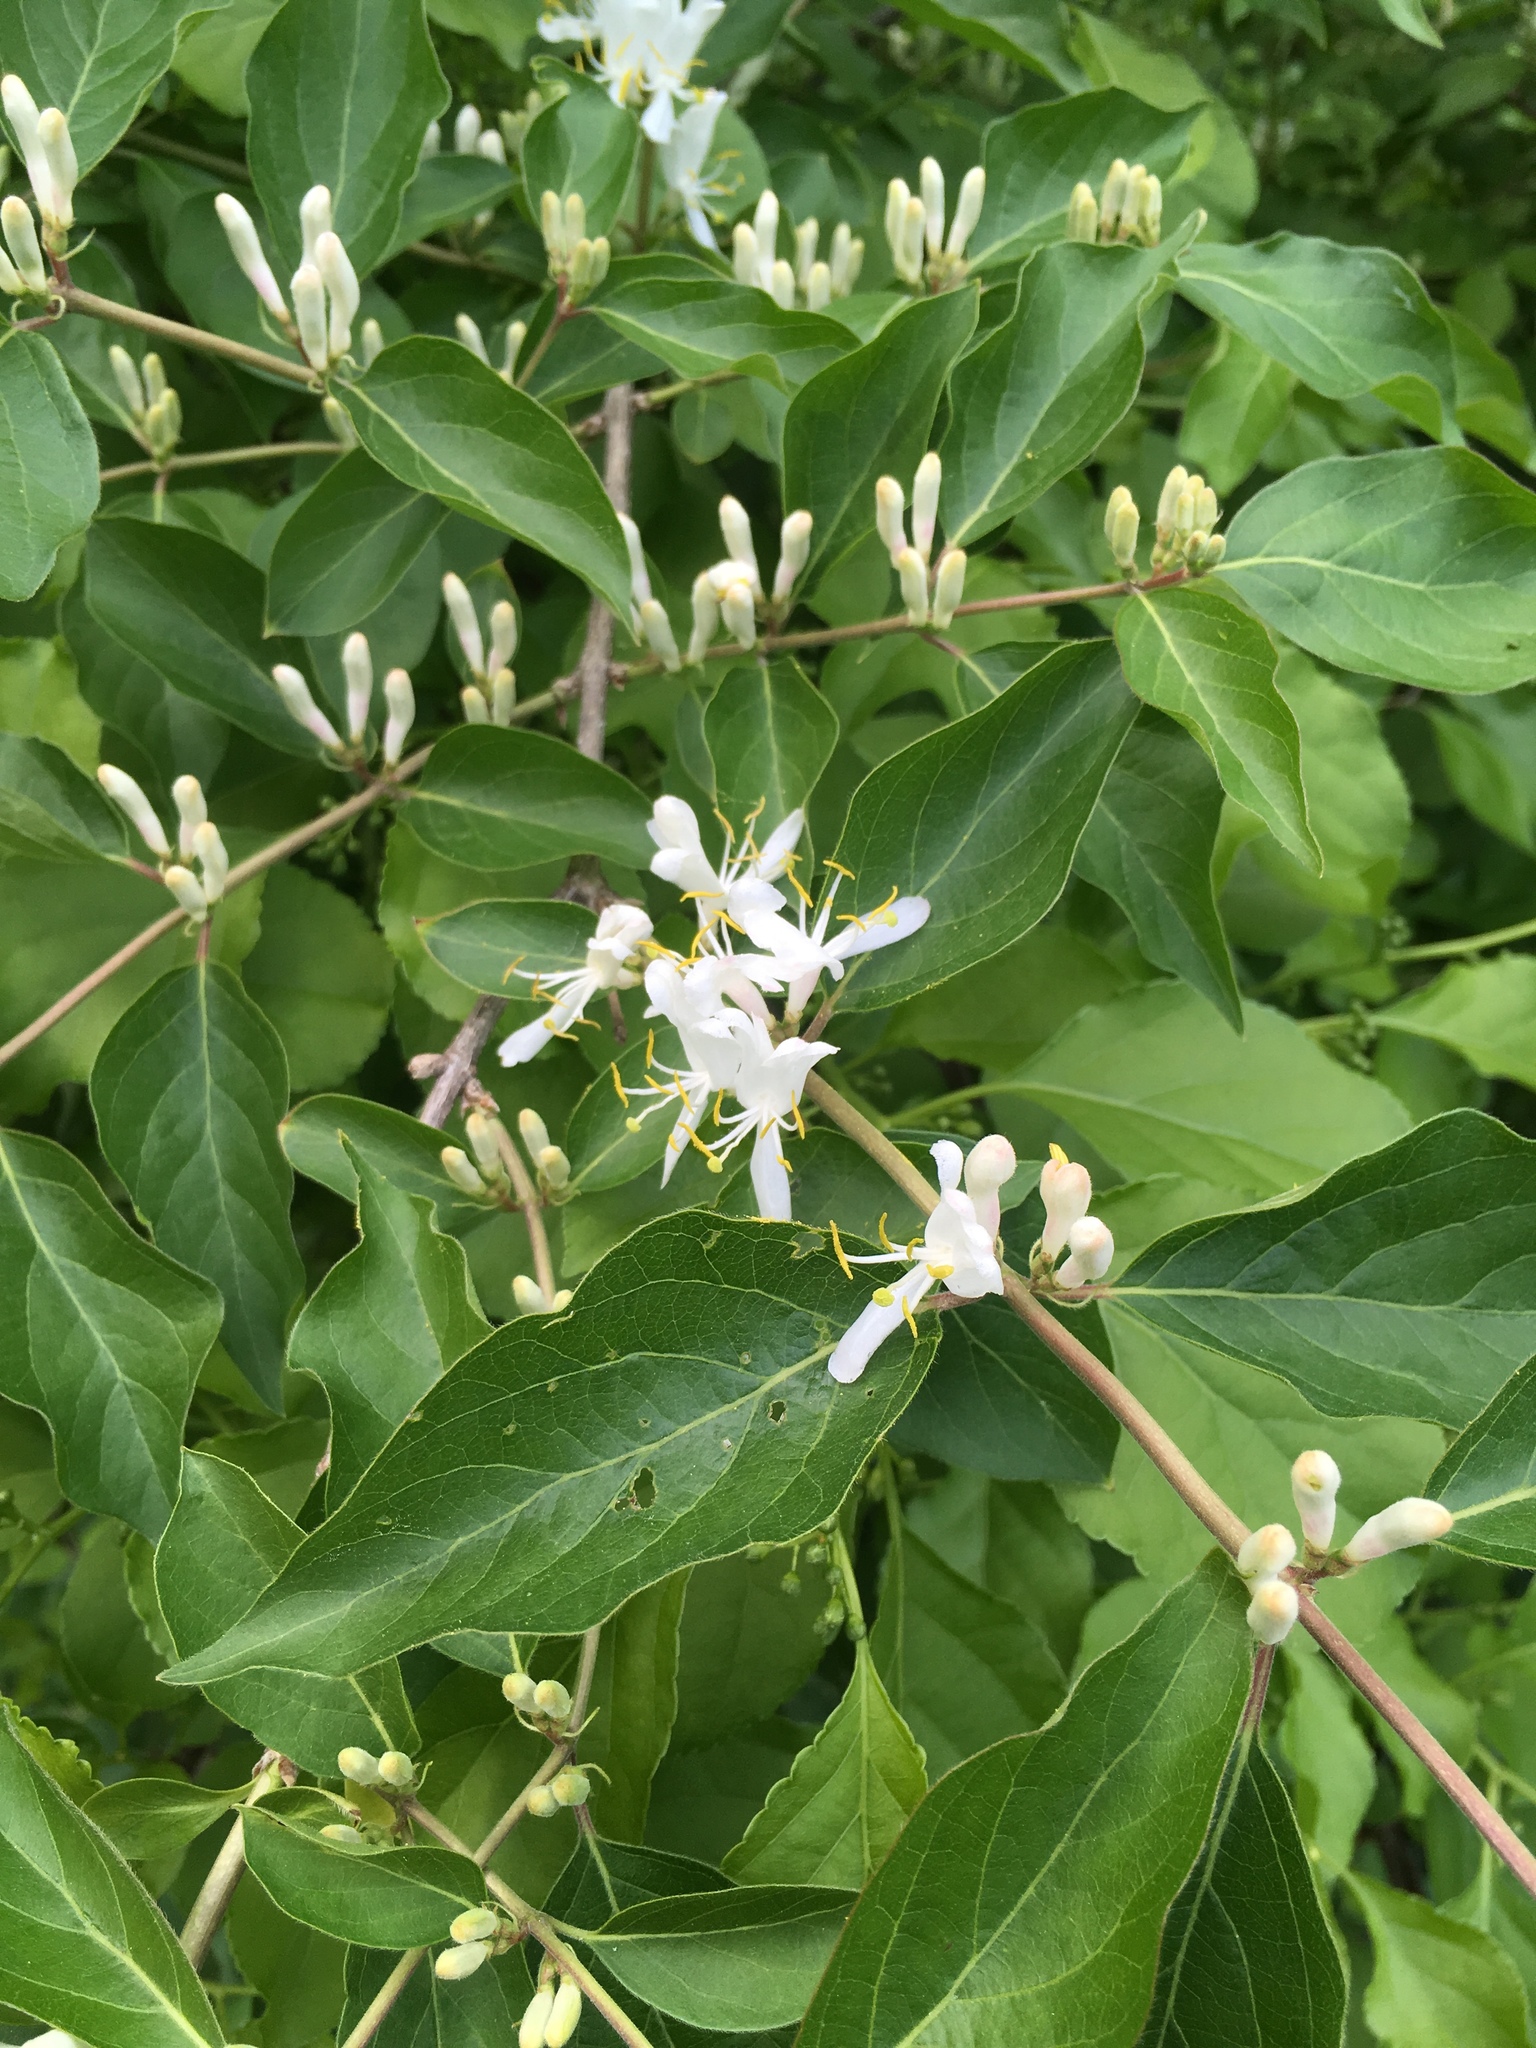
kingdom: Plantae
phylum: Tracheophyta
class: Magnoliopsida
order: Dipsacales
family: Caprifoliaceae
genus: Lonicera
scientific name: Lonicera maackii
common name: Amur honeysuckle
